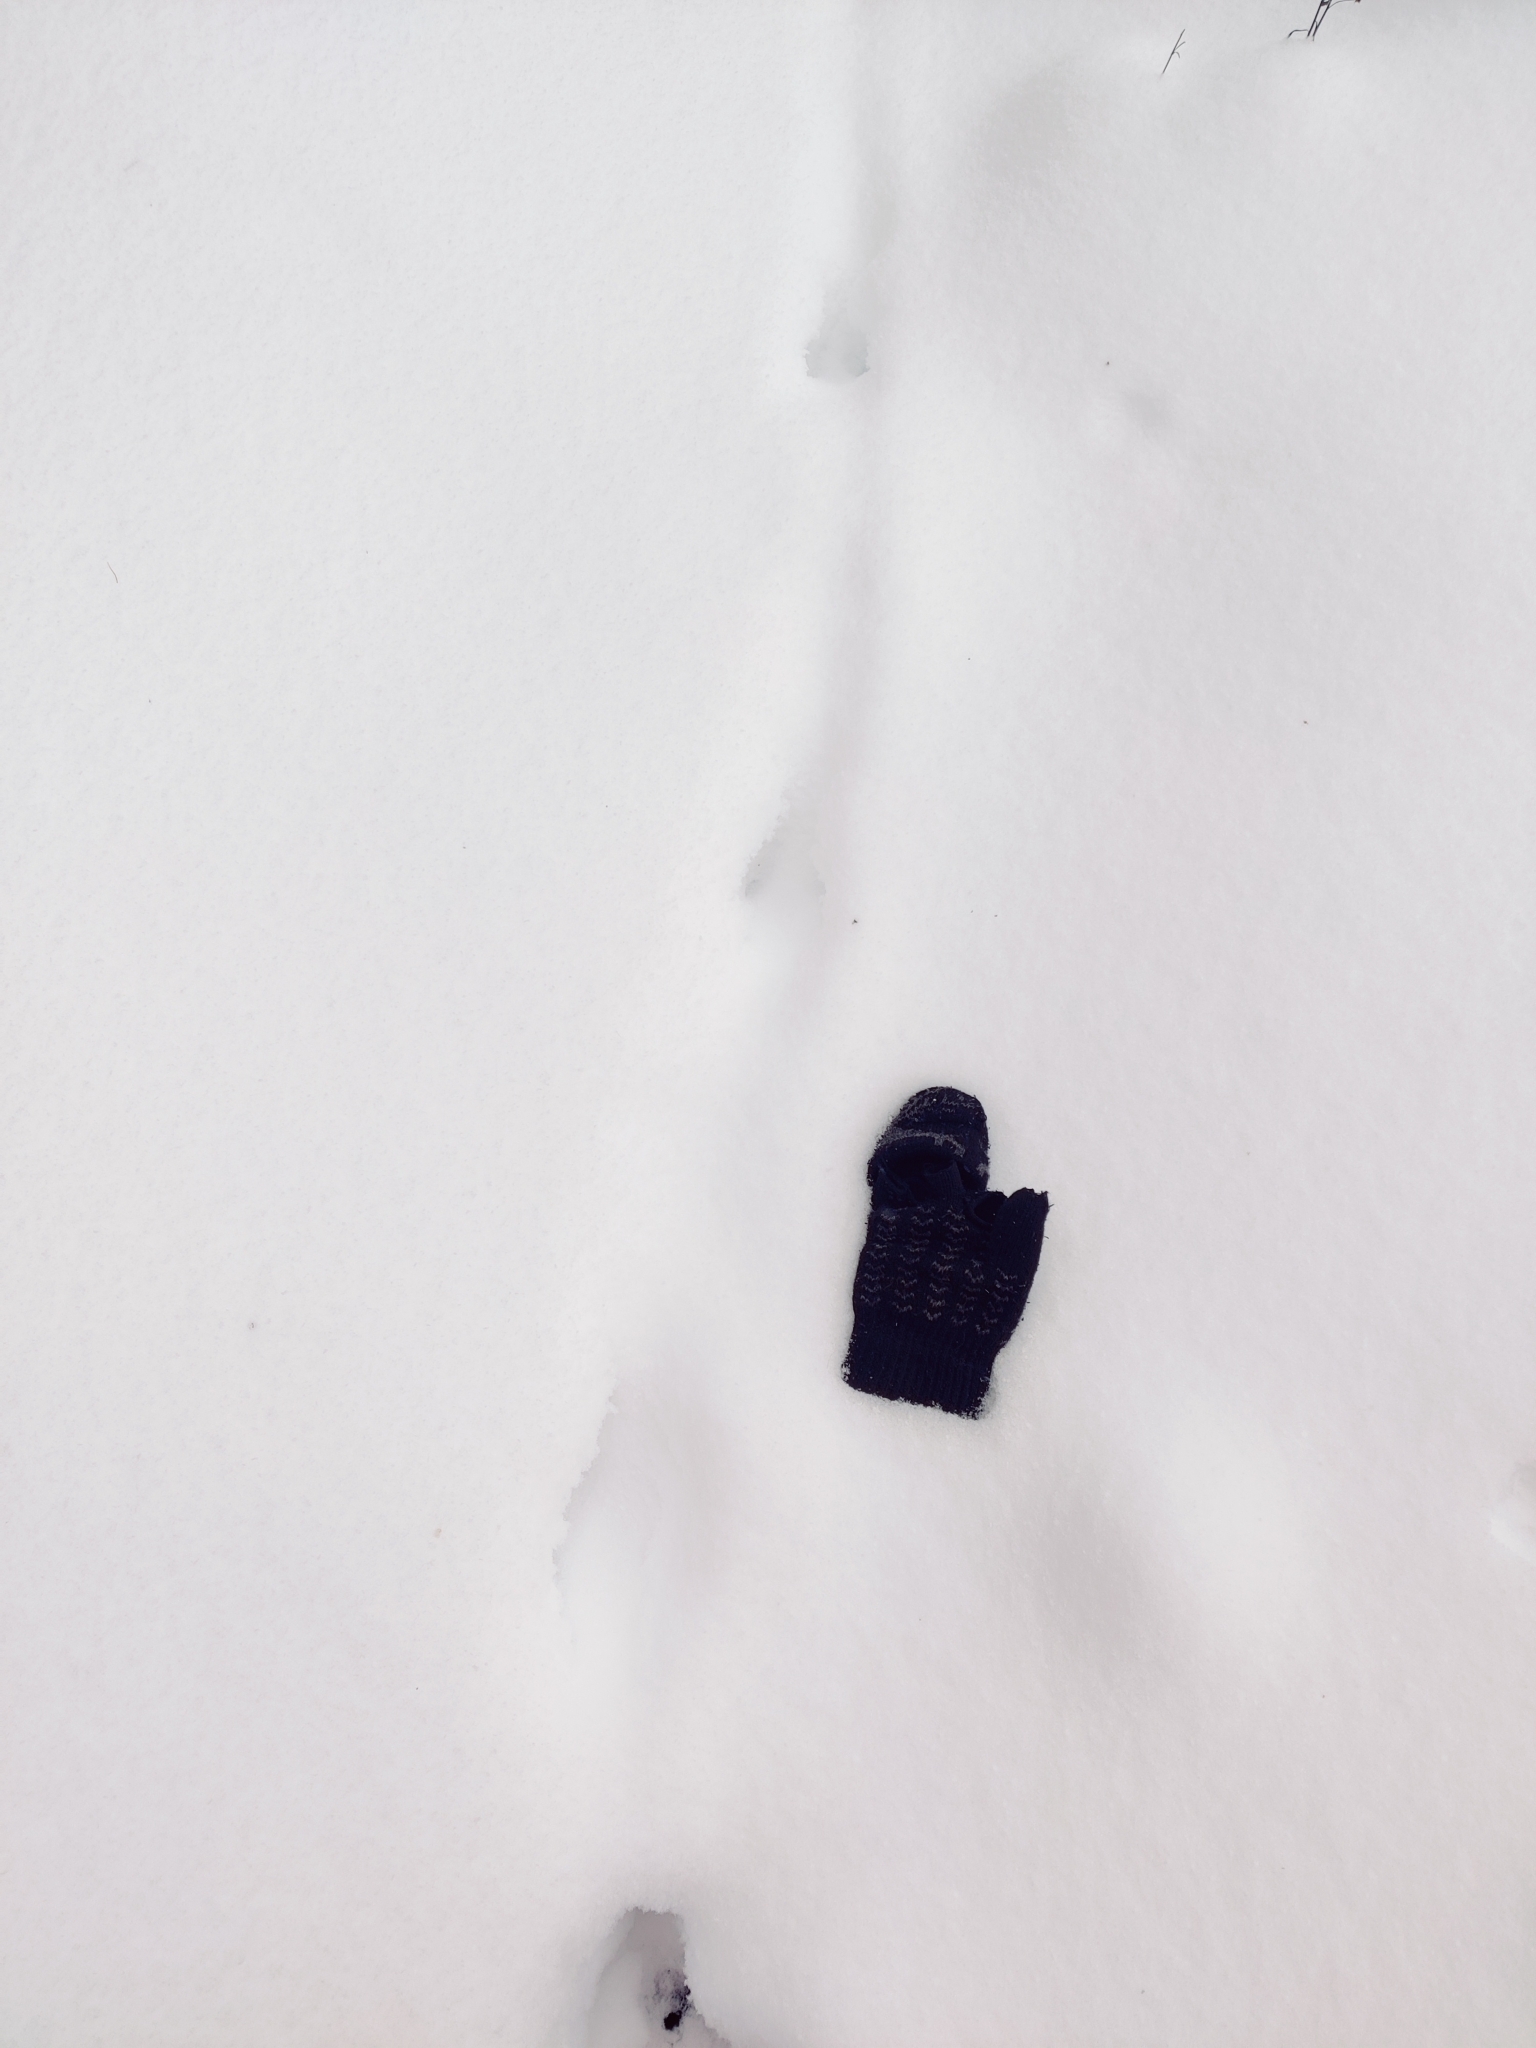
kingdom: Animalia
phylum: Chordata
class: Mammalia
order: Carnivora
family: Canidae
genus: Vulpes
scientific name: Vulpes vulpes
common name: Red fox
